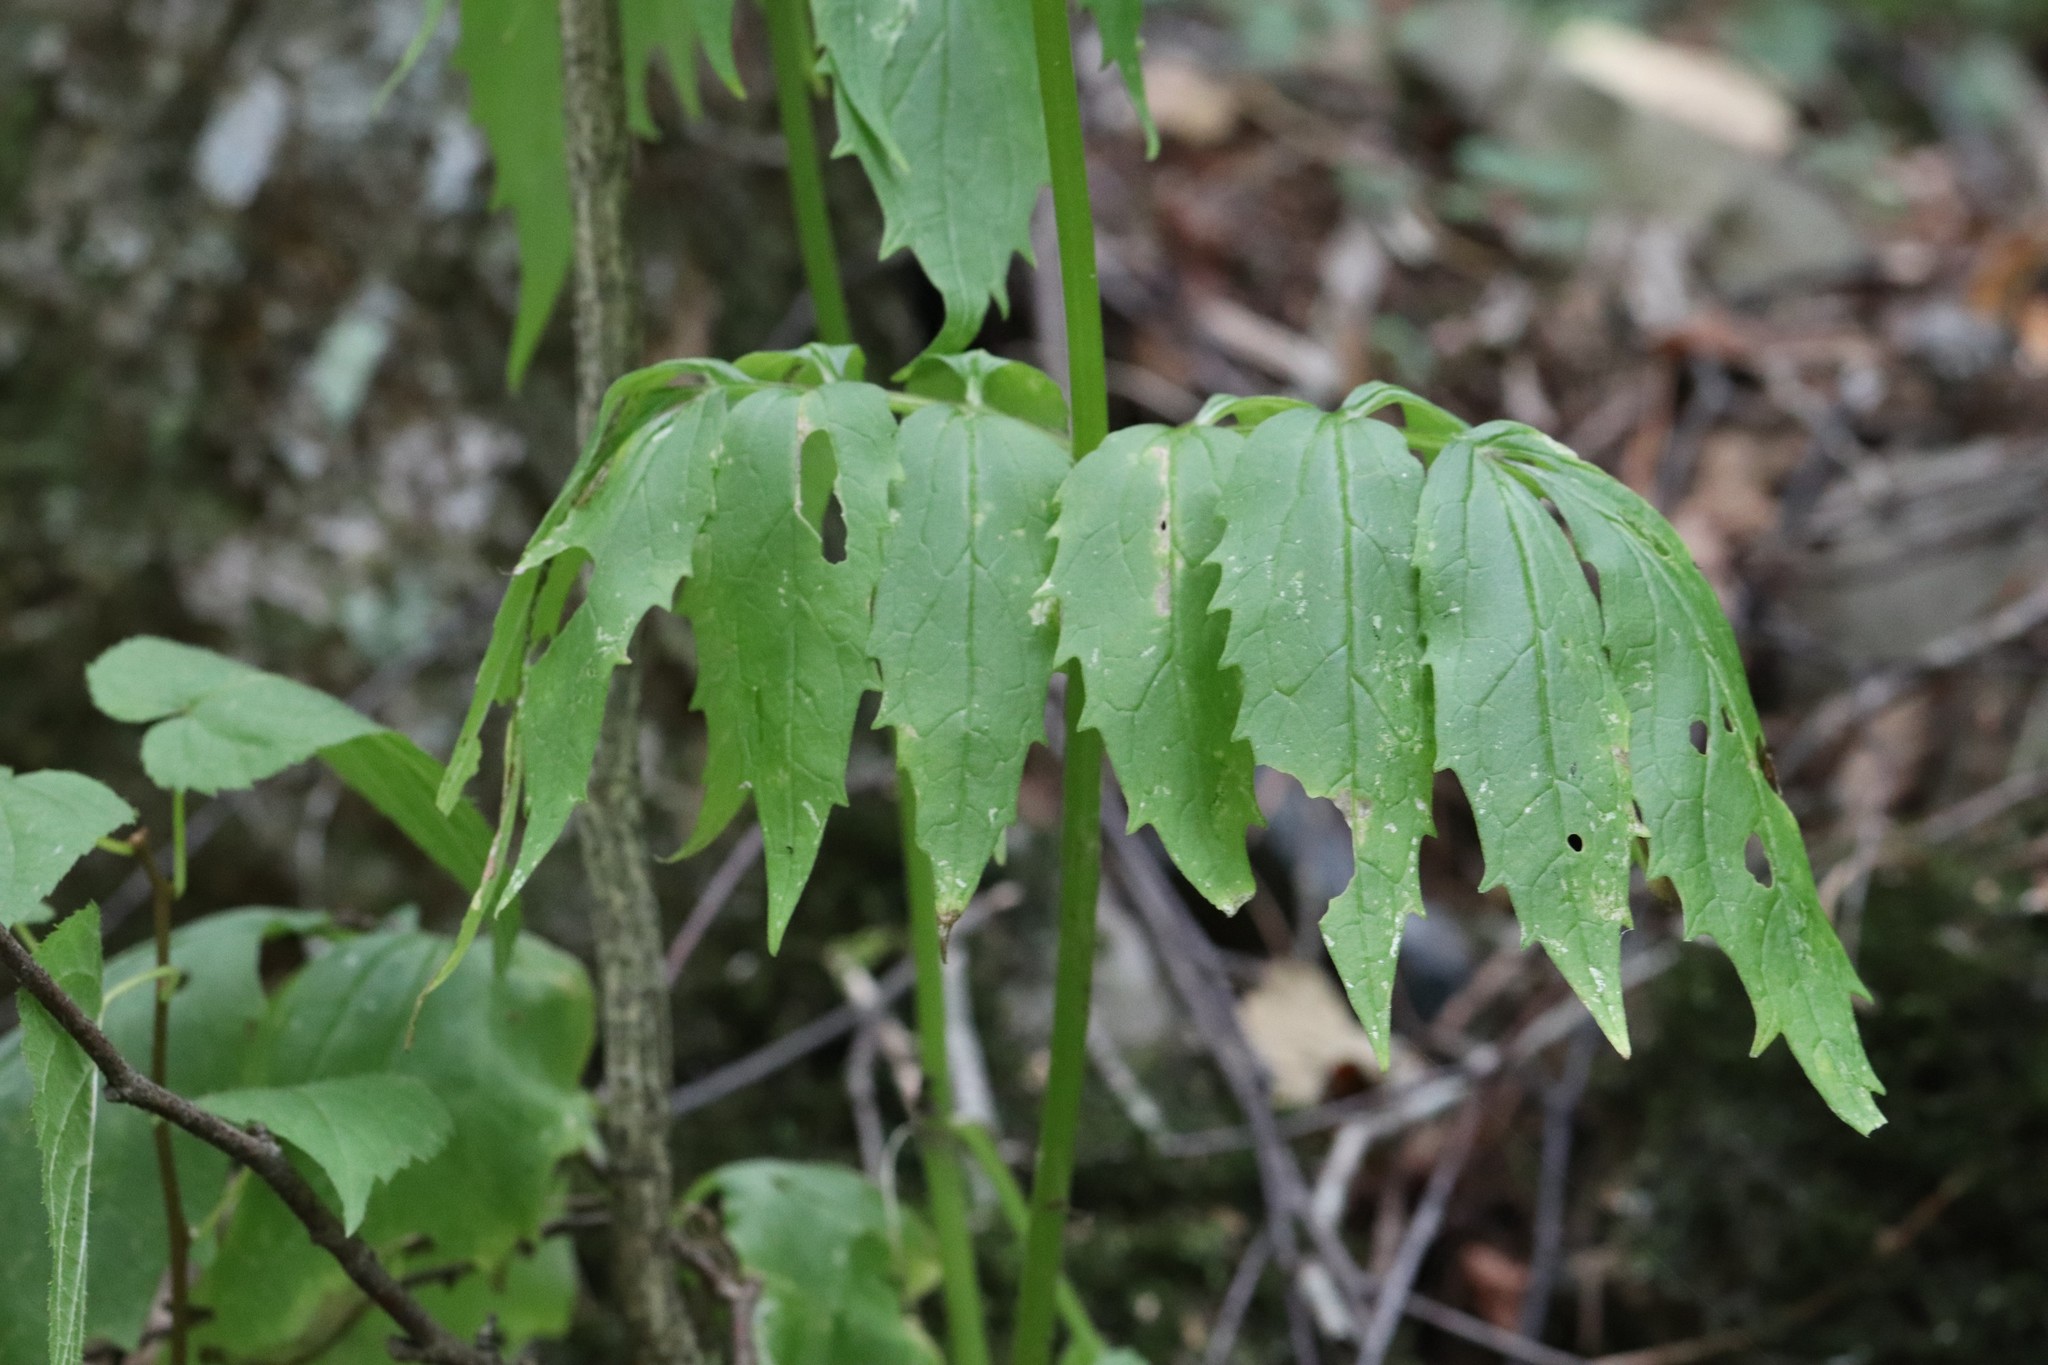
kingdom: Plantae
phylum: Tracheophyta
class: Magnoliopsida
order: Dipsacales
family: Caprifoliaceae
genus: Valeriana
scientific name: Valeriana fauriei
